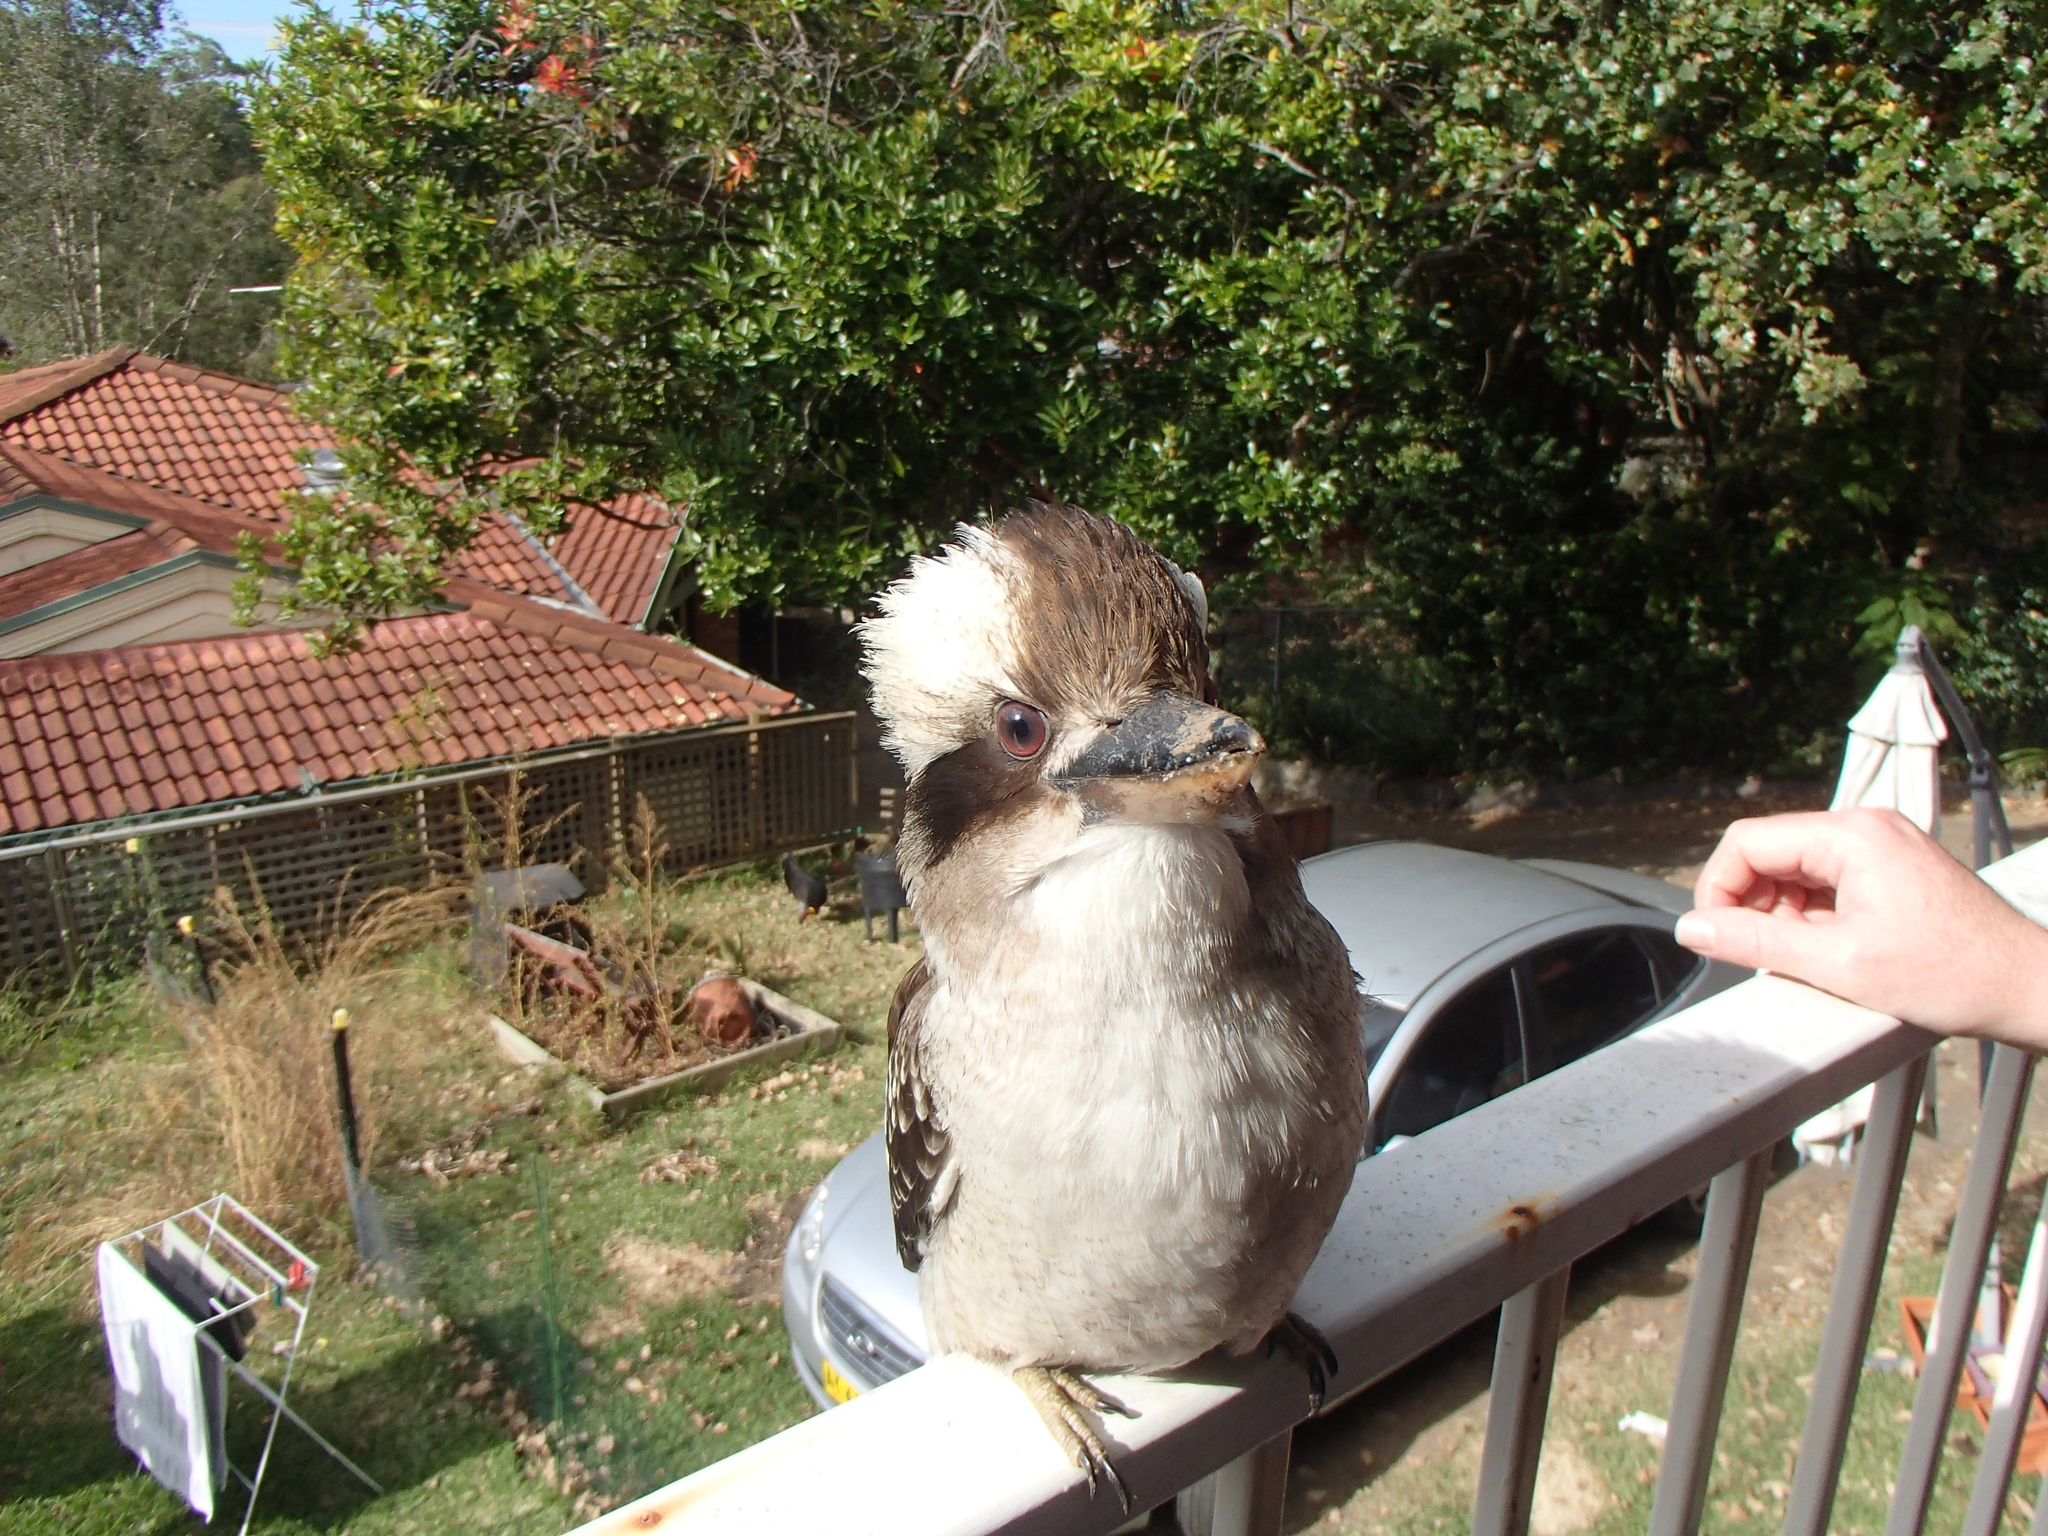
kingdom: Animalia
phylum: Chordata
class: Aves
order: Coraciiformes
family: Alcedinidae
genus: Dacelo
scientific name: Dacelo novaeguineae
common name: Laughing kookaburra
